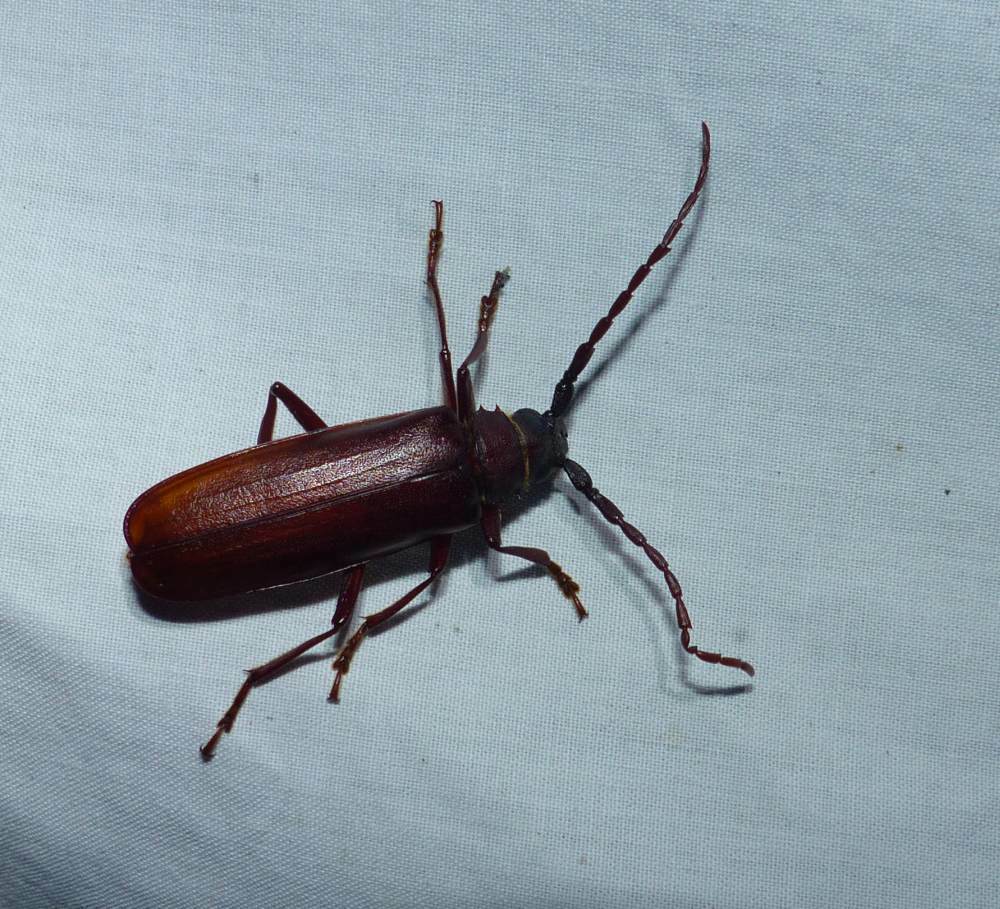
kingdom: Animalia
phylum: Arthropoda
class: Insecta
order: Coleoptera
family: Cerambycidae
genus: Orthosoma
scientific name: Orthosoma brunneum
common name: Brown prionid beetle
